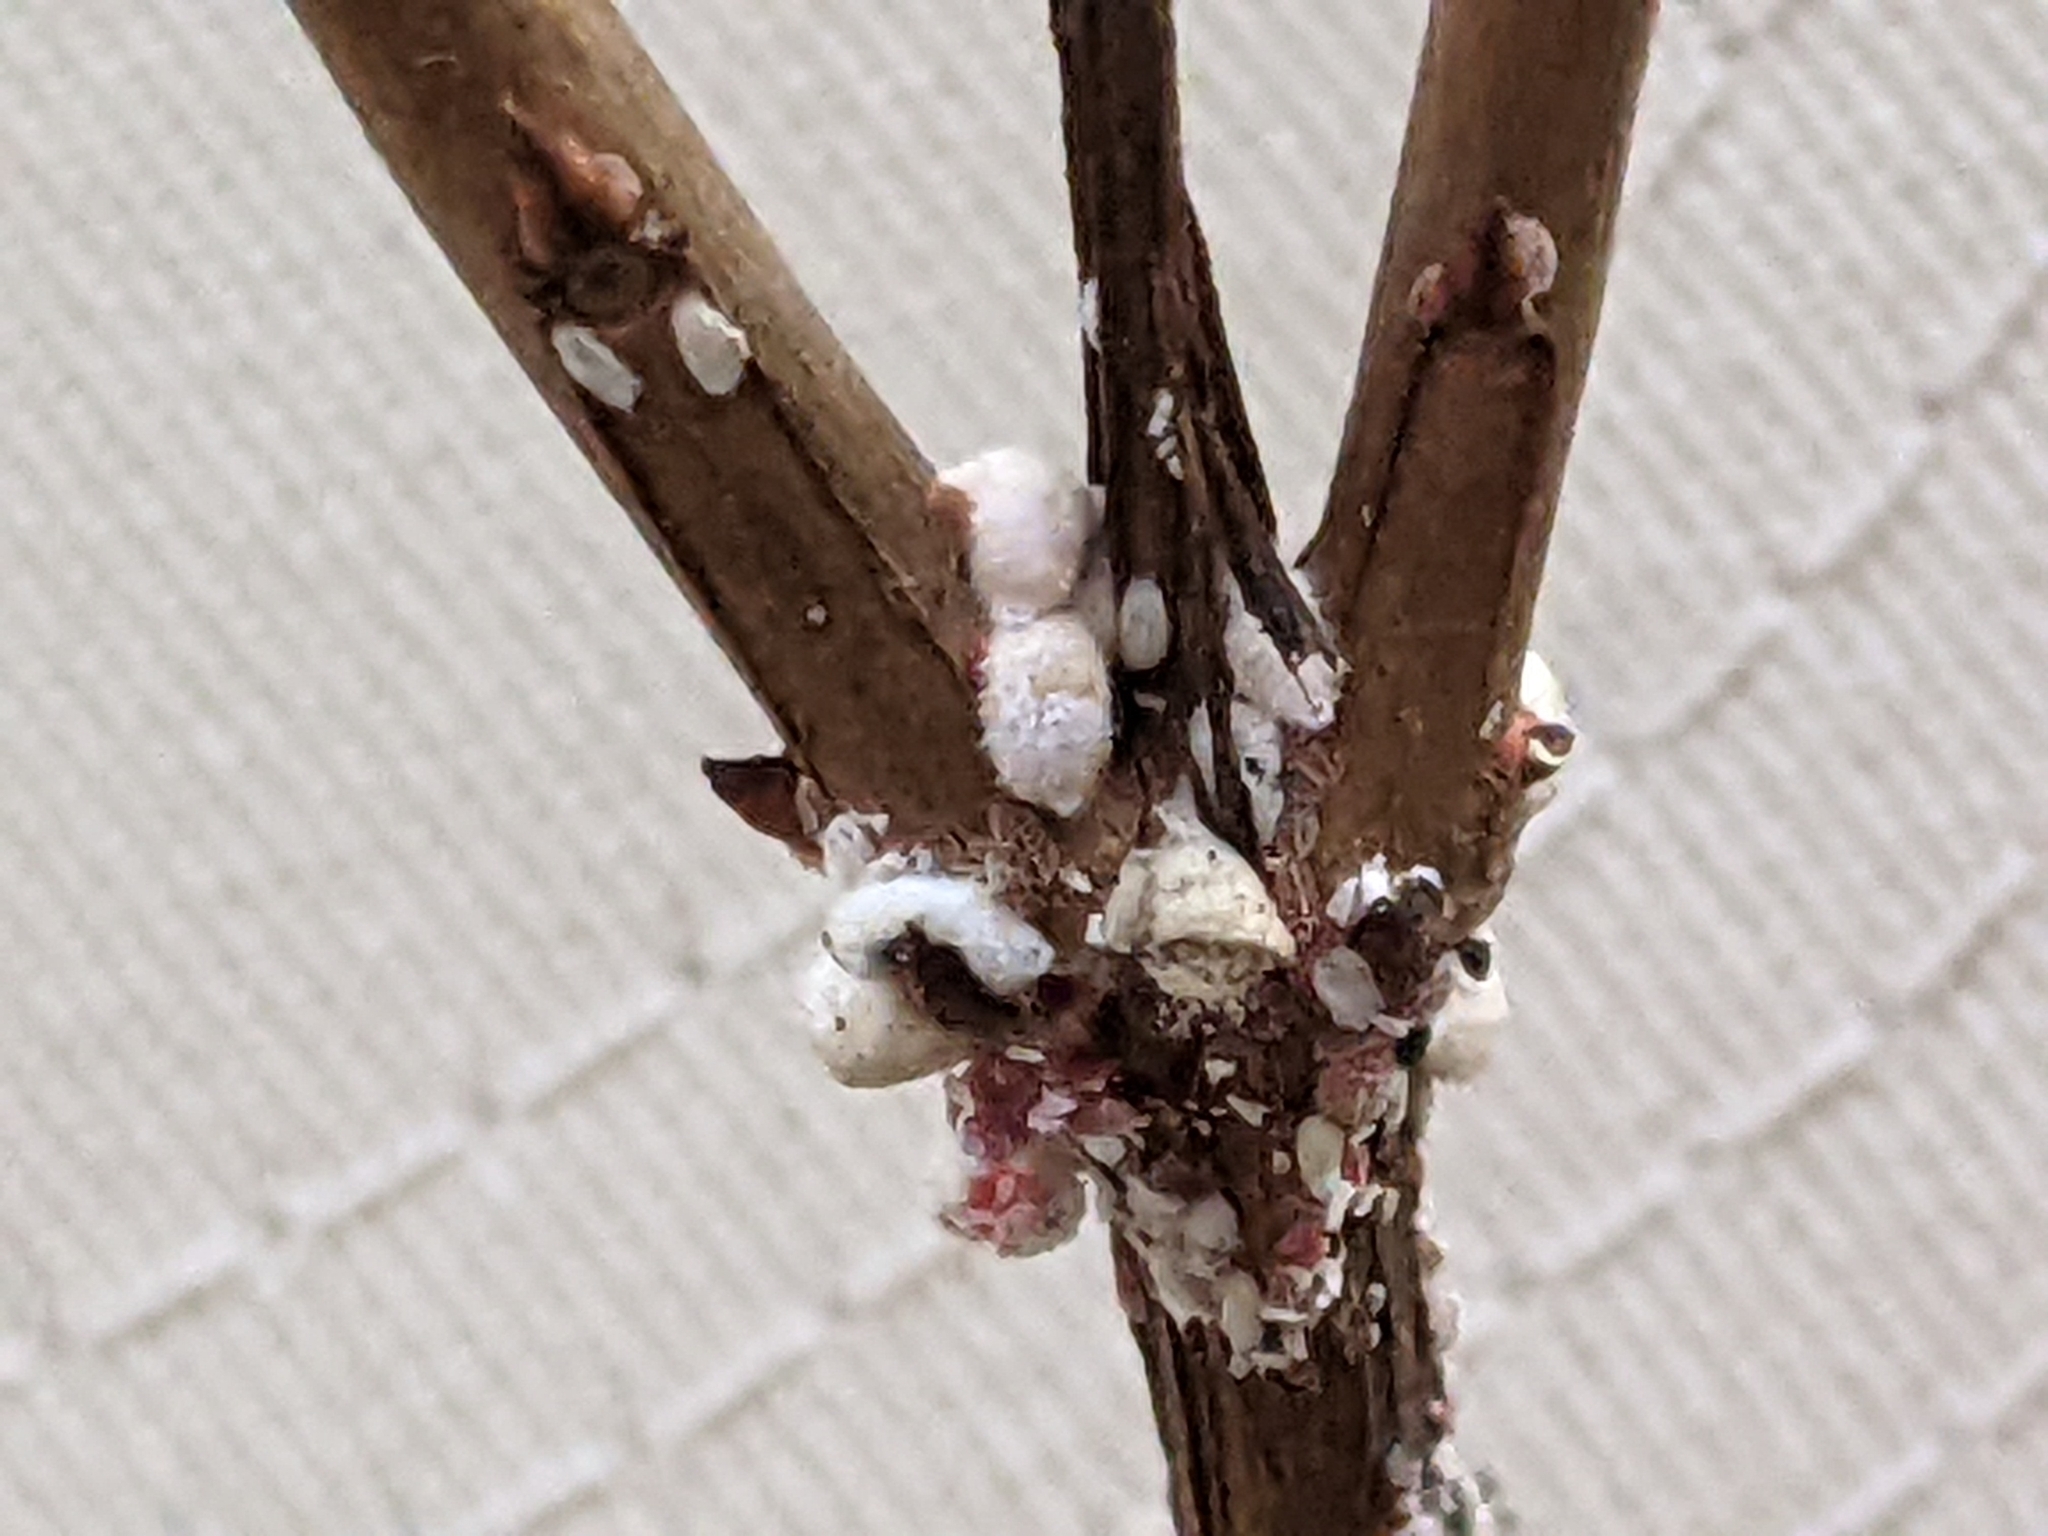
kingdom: Animalia
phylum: Arthropoda
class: Insecta
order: Hemiptera
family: Eriococcidae
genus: Eriococcus
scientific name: Eriococcus lagerstroemiae
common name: Crapemyrtle bark scale
